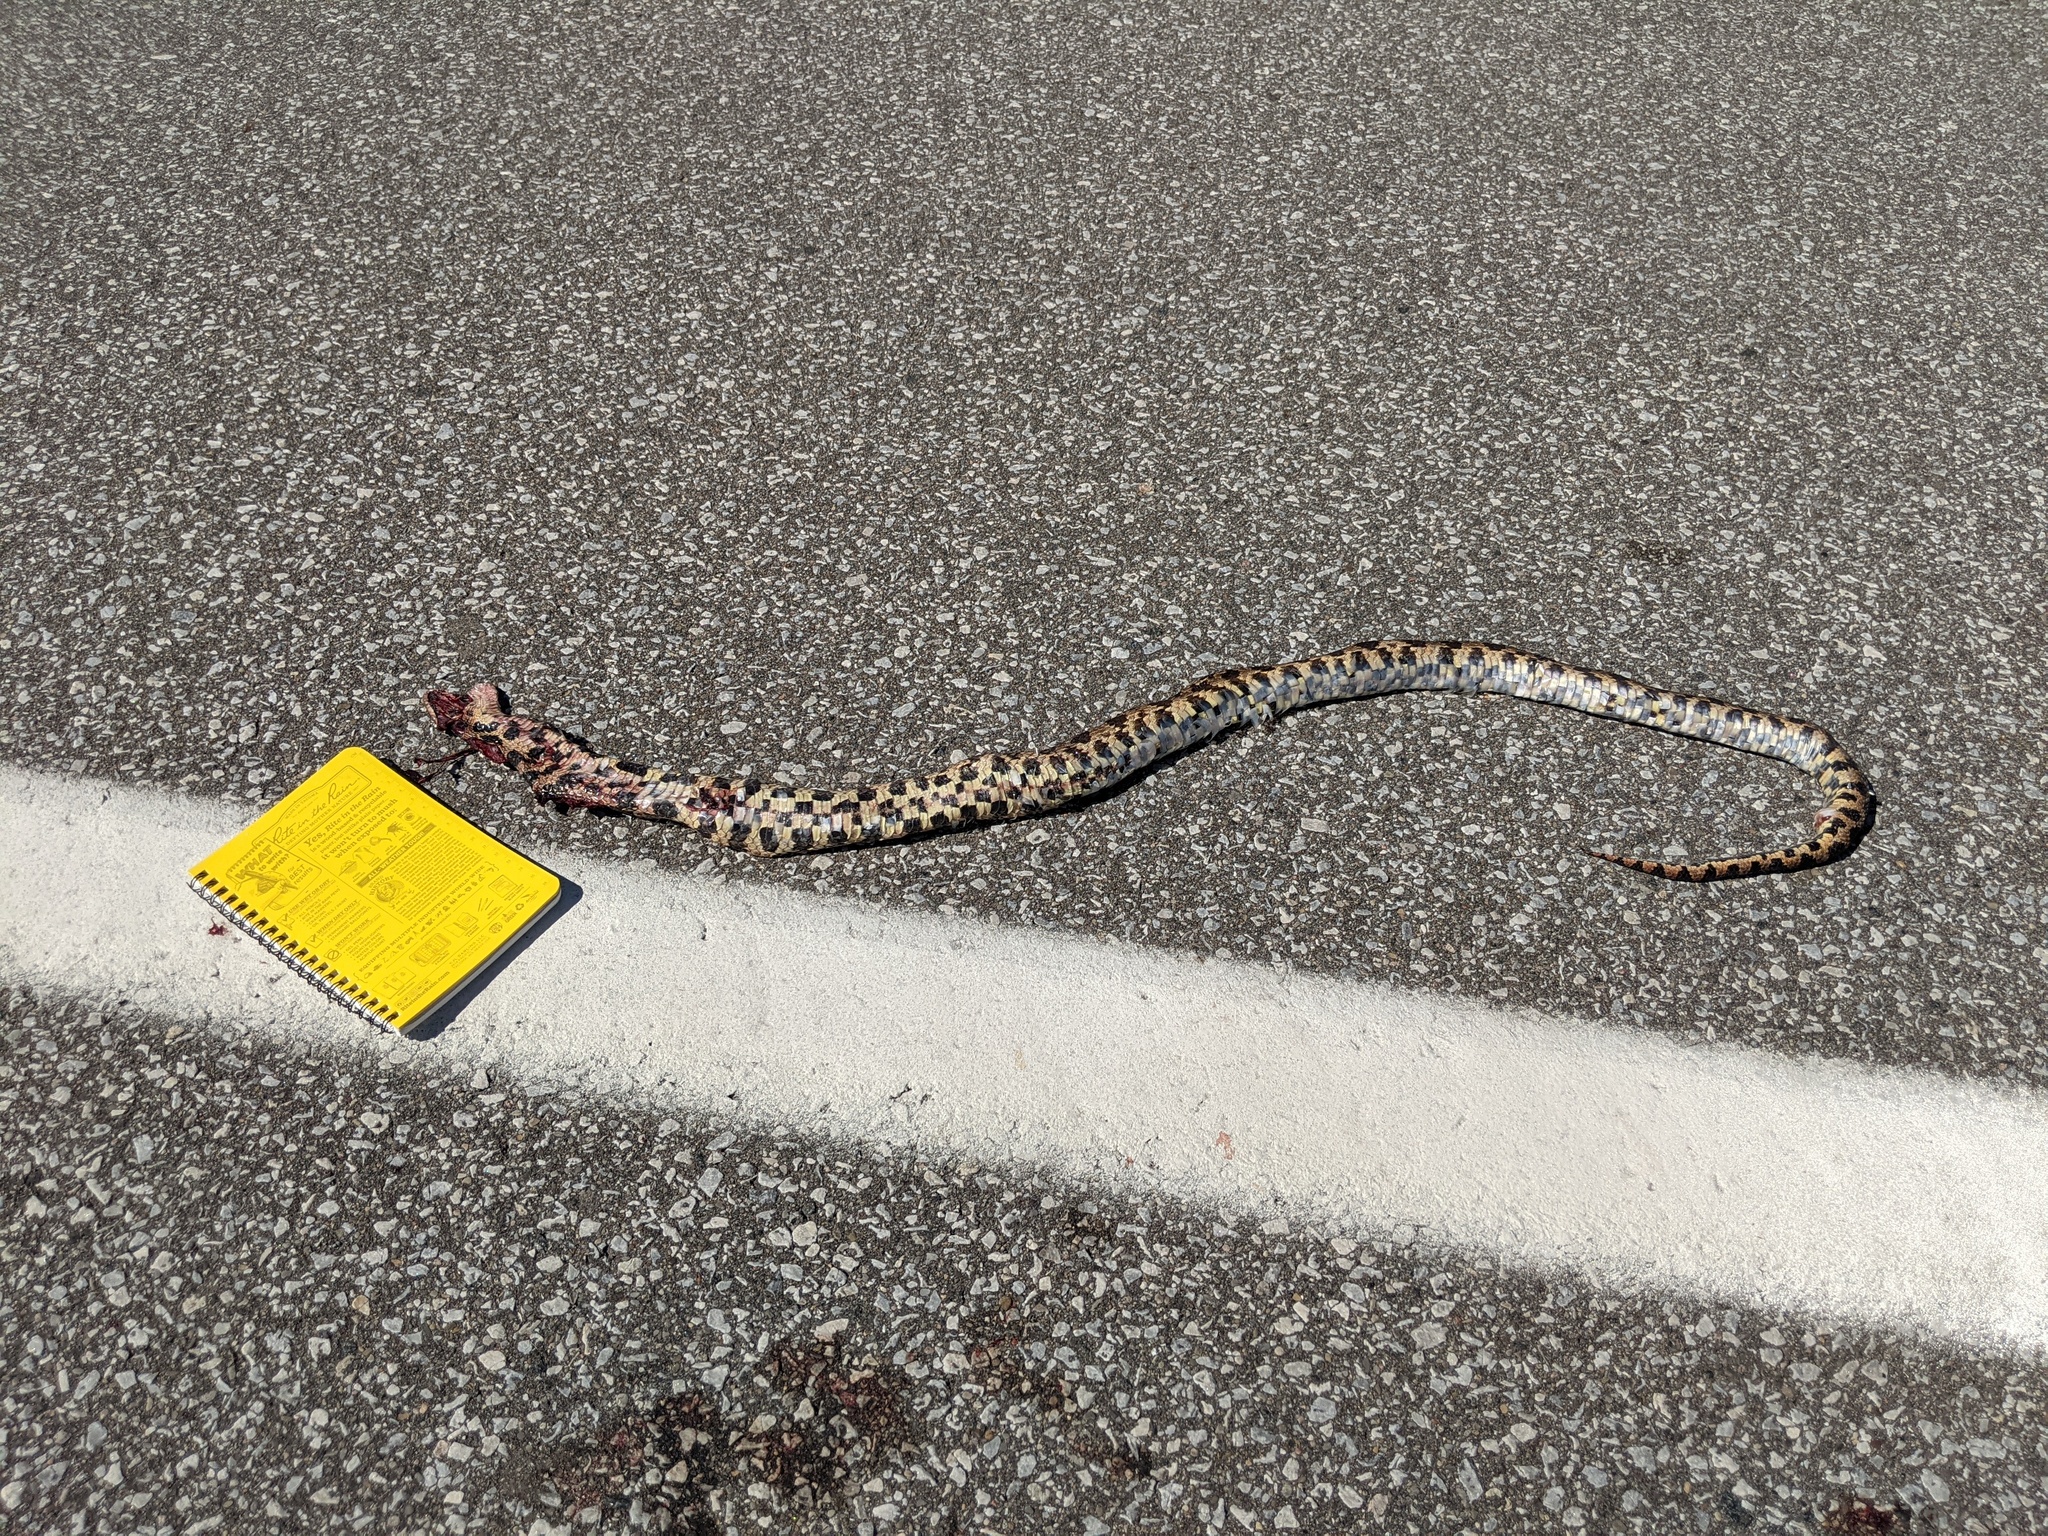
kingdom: Animalia
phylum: Chordata
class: Squamata
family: Colubridae
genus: Pantherophis
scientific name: Pantherophis vulpinus
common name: Eastern fox snake
